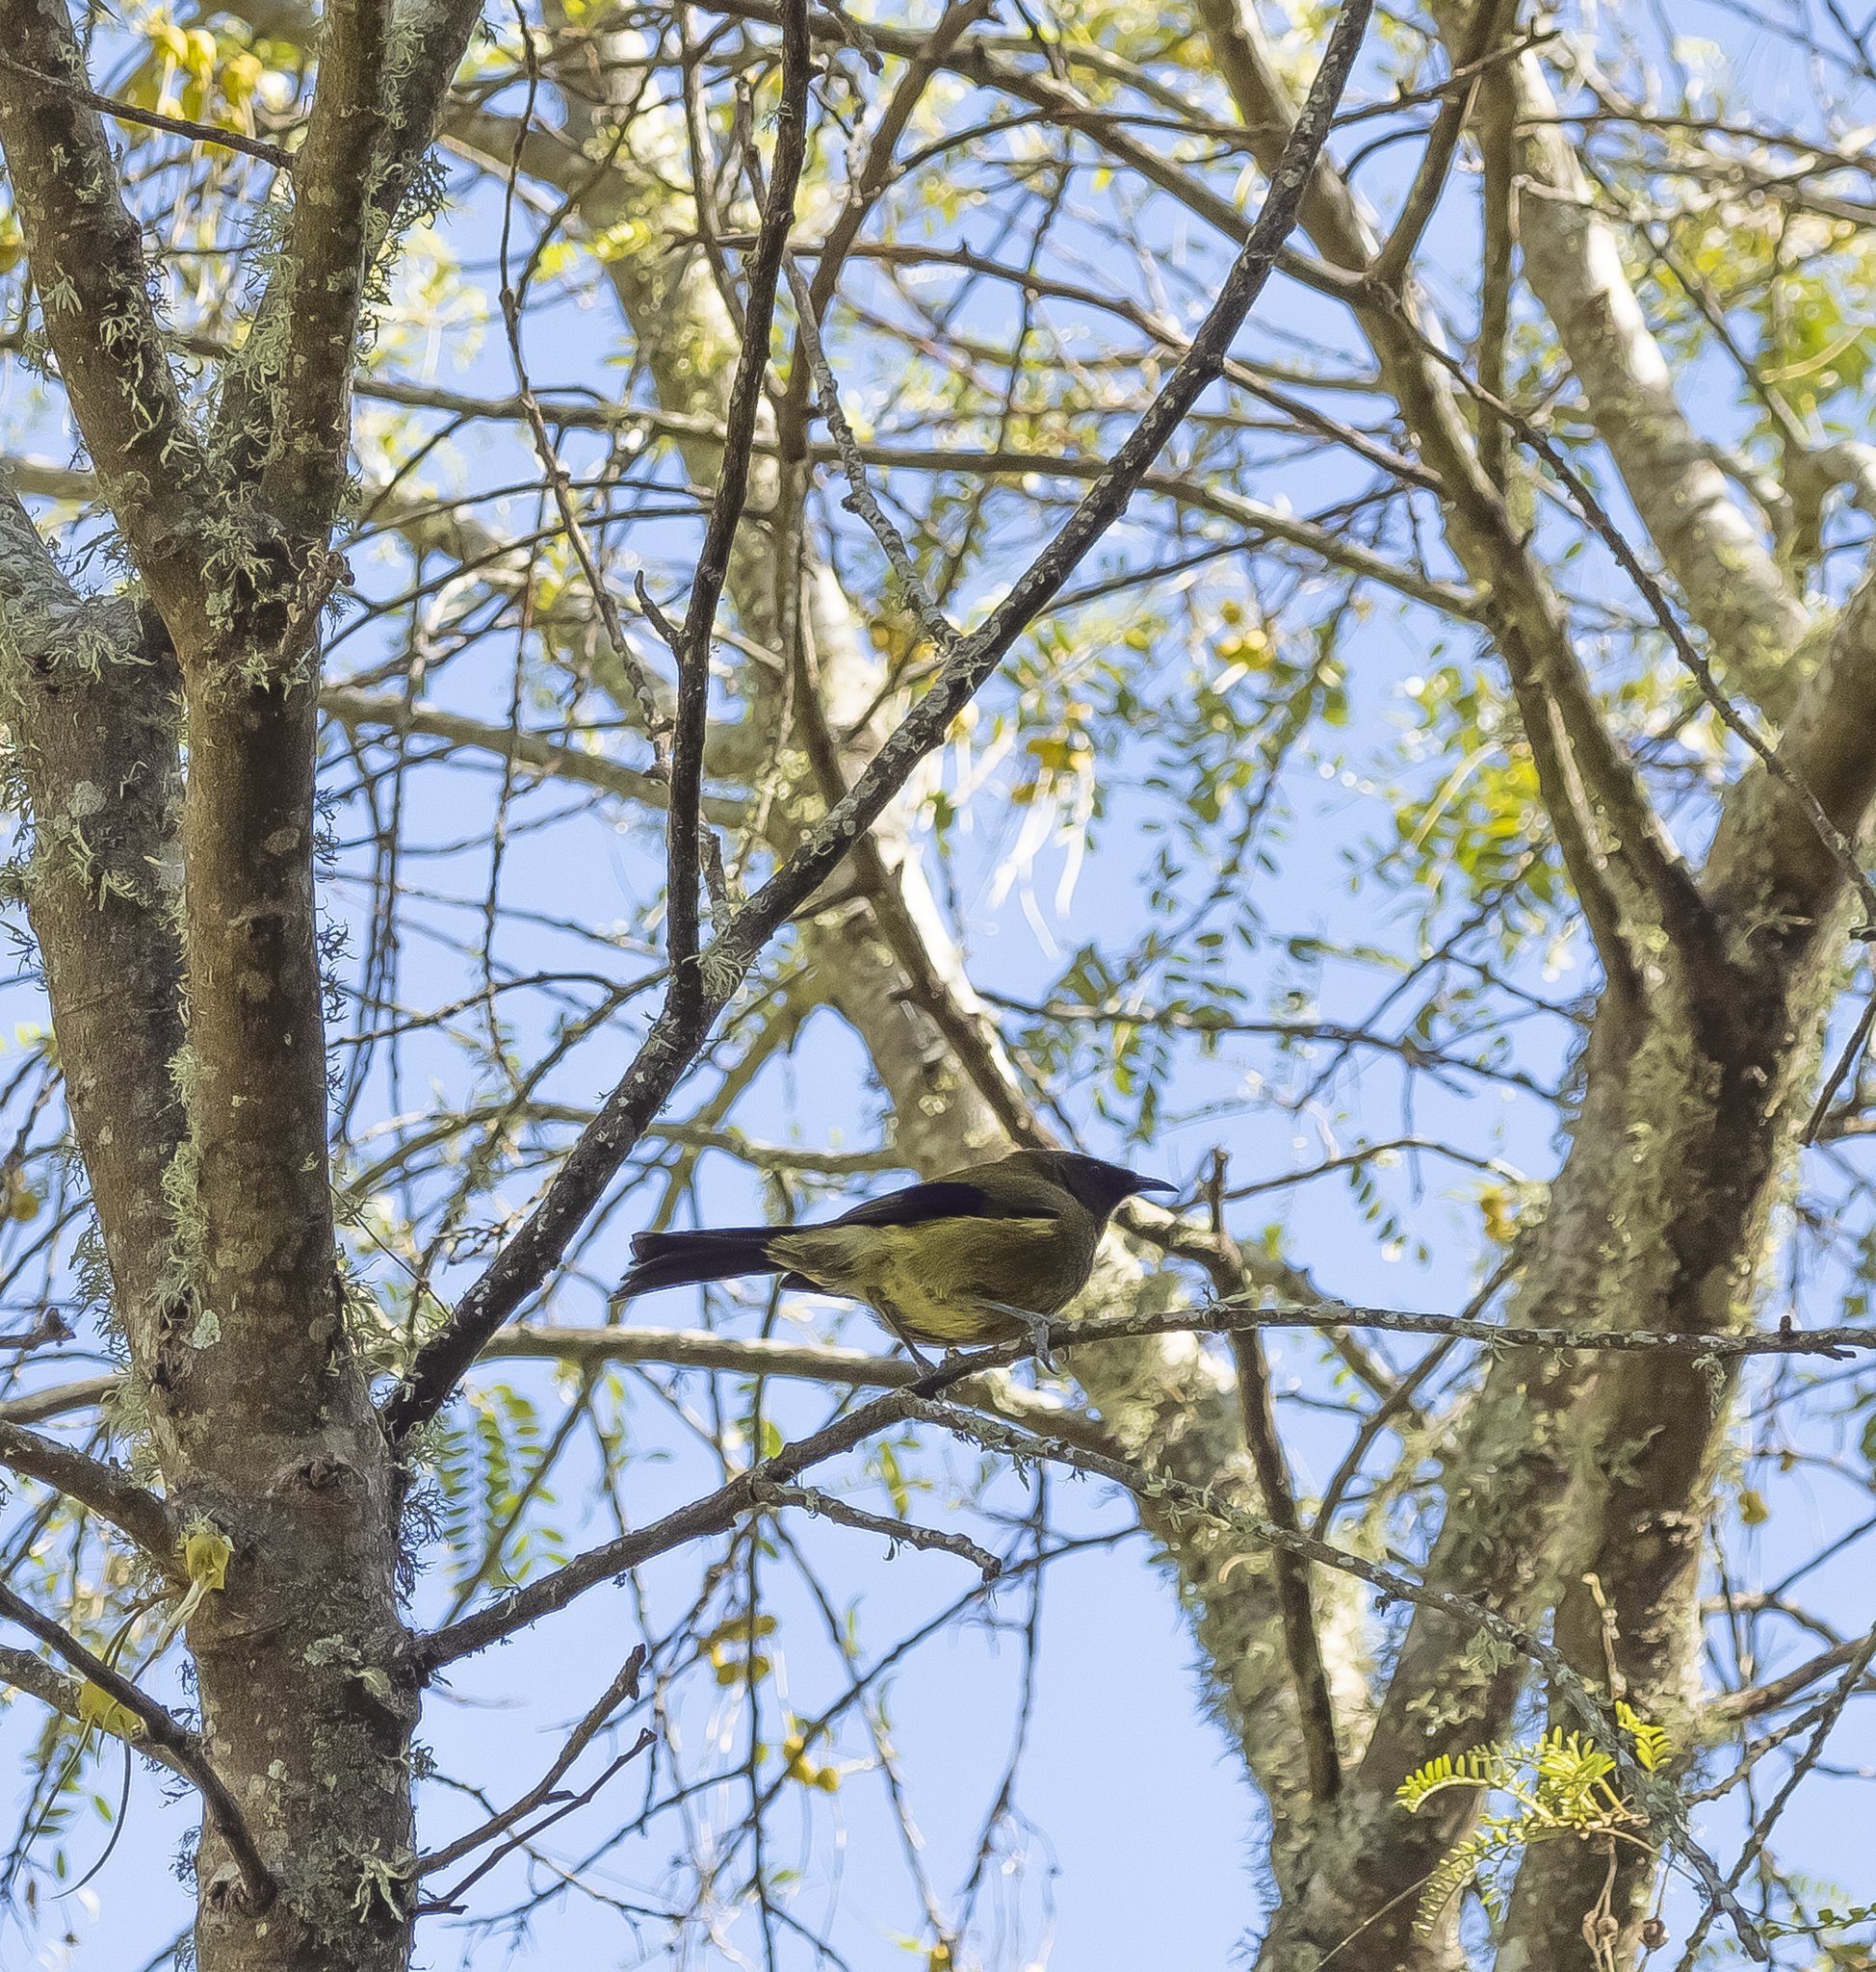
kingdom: Animalia
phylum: Chordata
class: Aves
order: Passeriformes
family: Meliphagidae
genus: Anthornis
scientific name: Anthornis melanura
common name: New zealand bellbird
